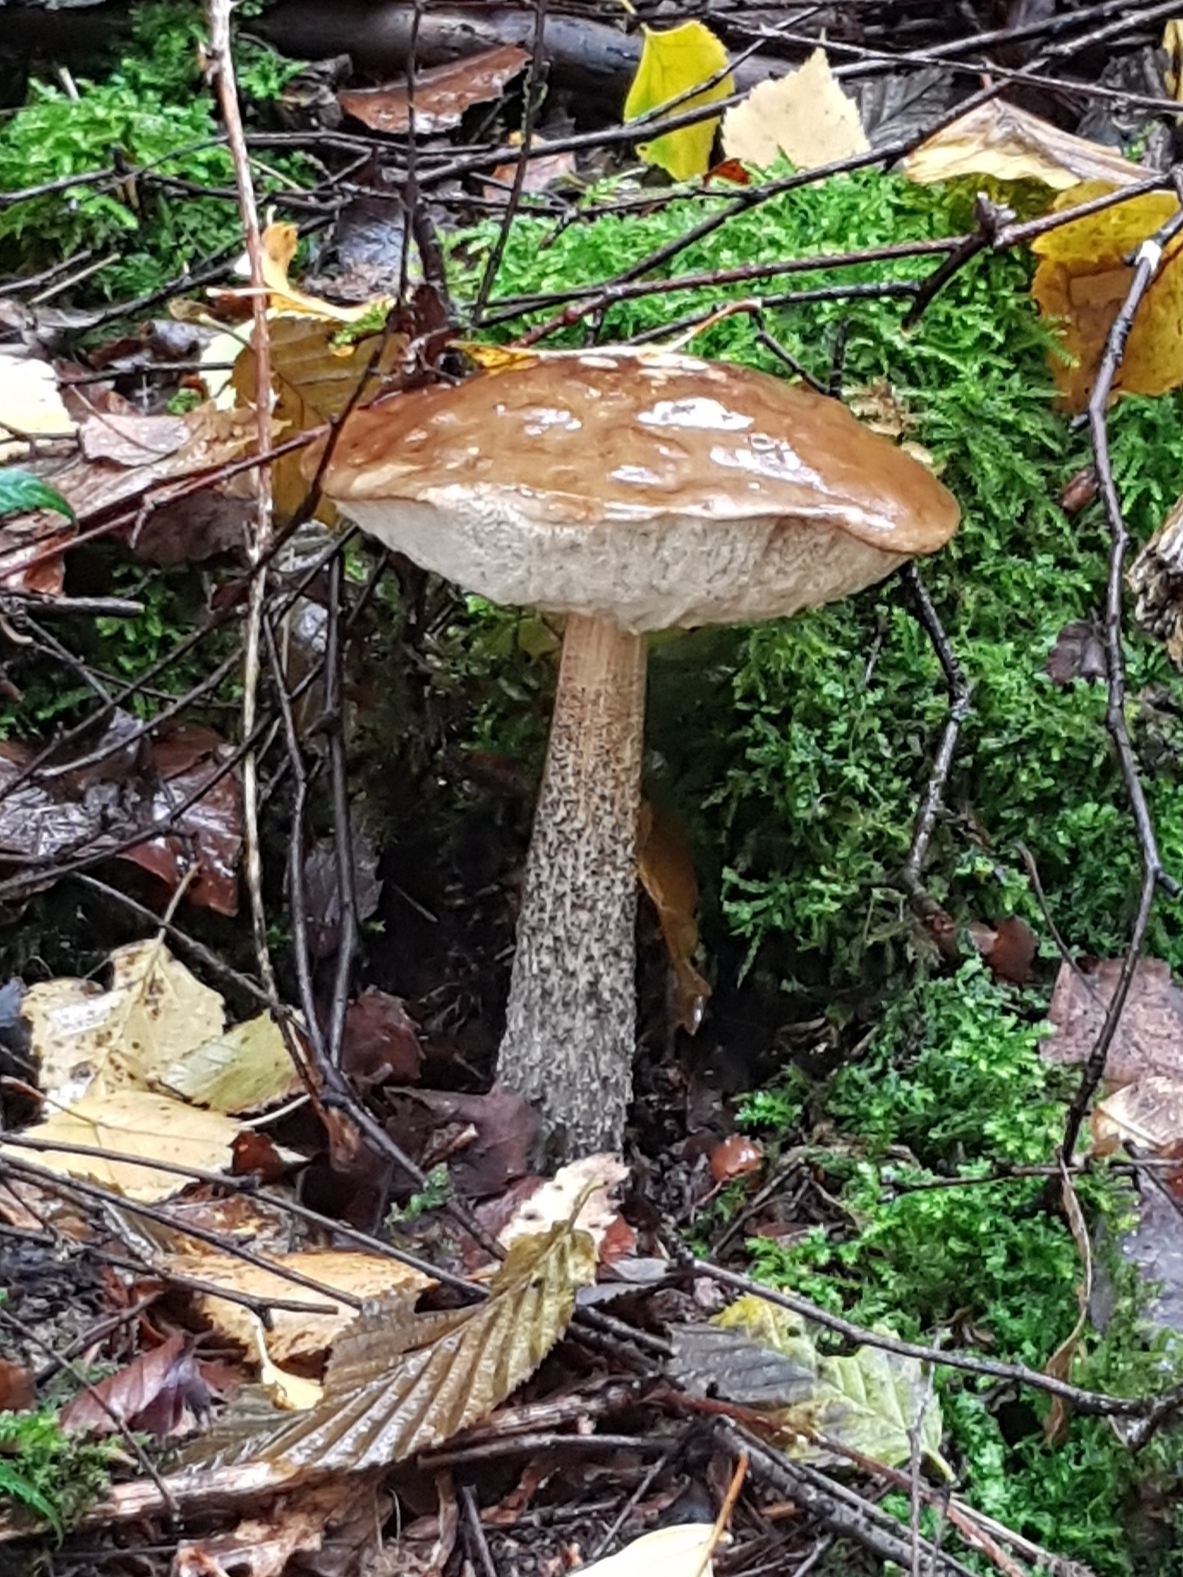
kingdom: Fungi
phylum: Basidiomycota
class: Agaricomycetes
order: Boletales
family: Boletaceae
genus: Leccinum
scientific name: Leccinum scabrum
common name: Blushing bolete
